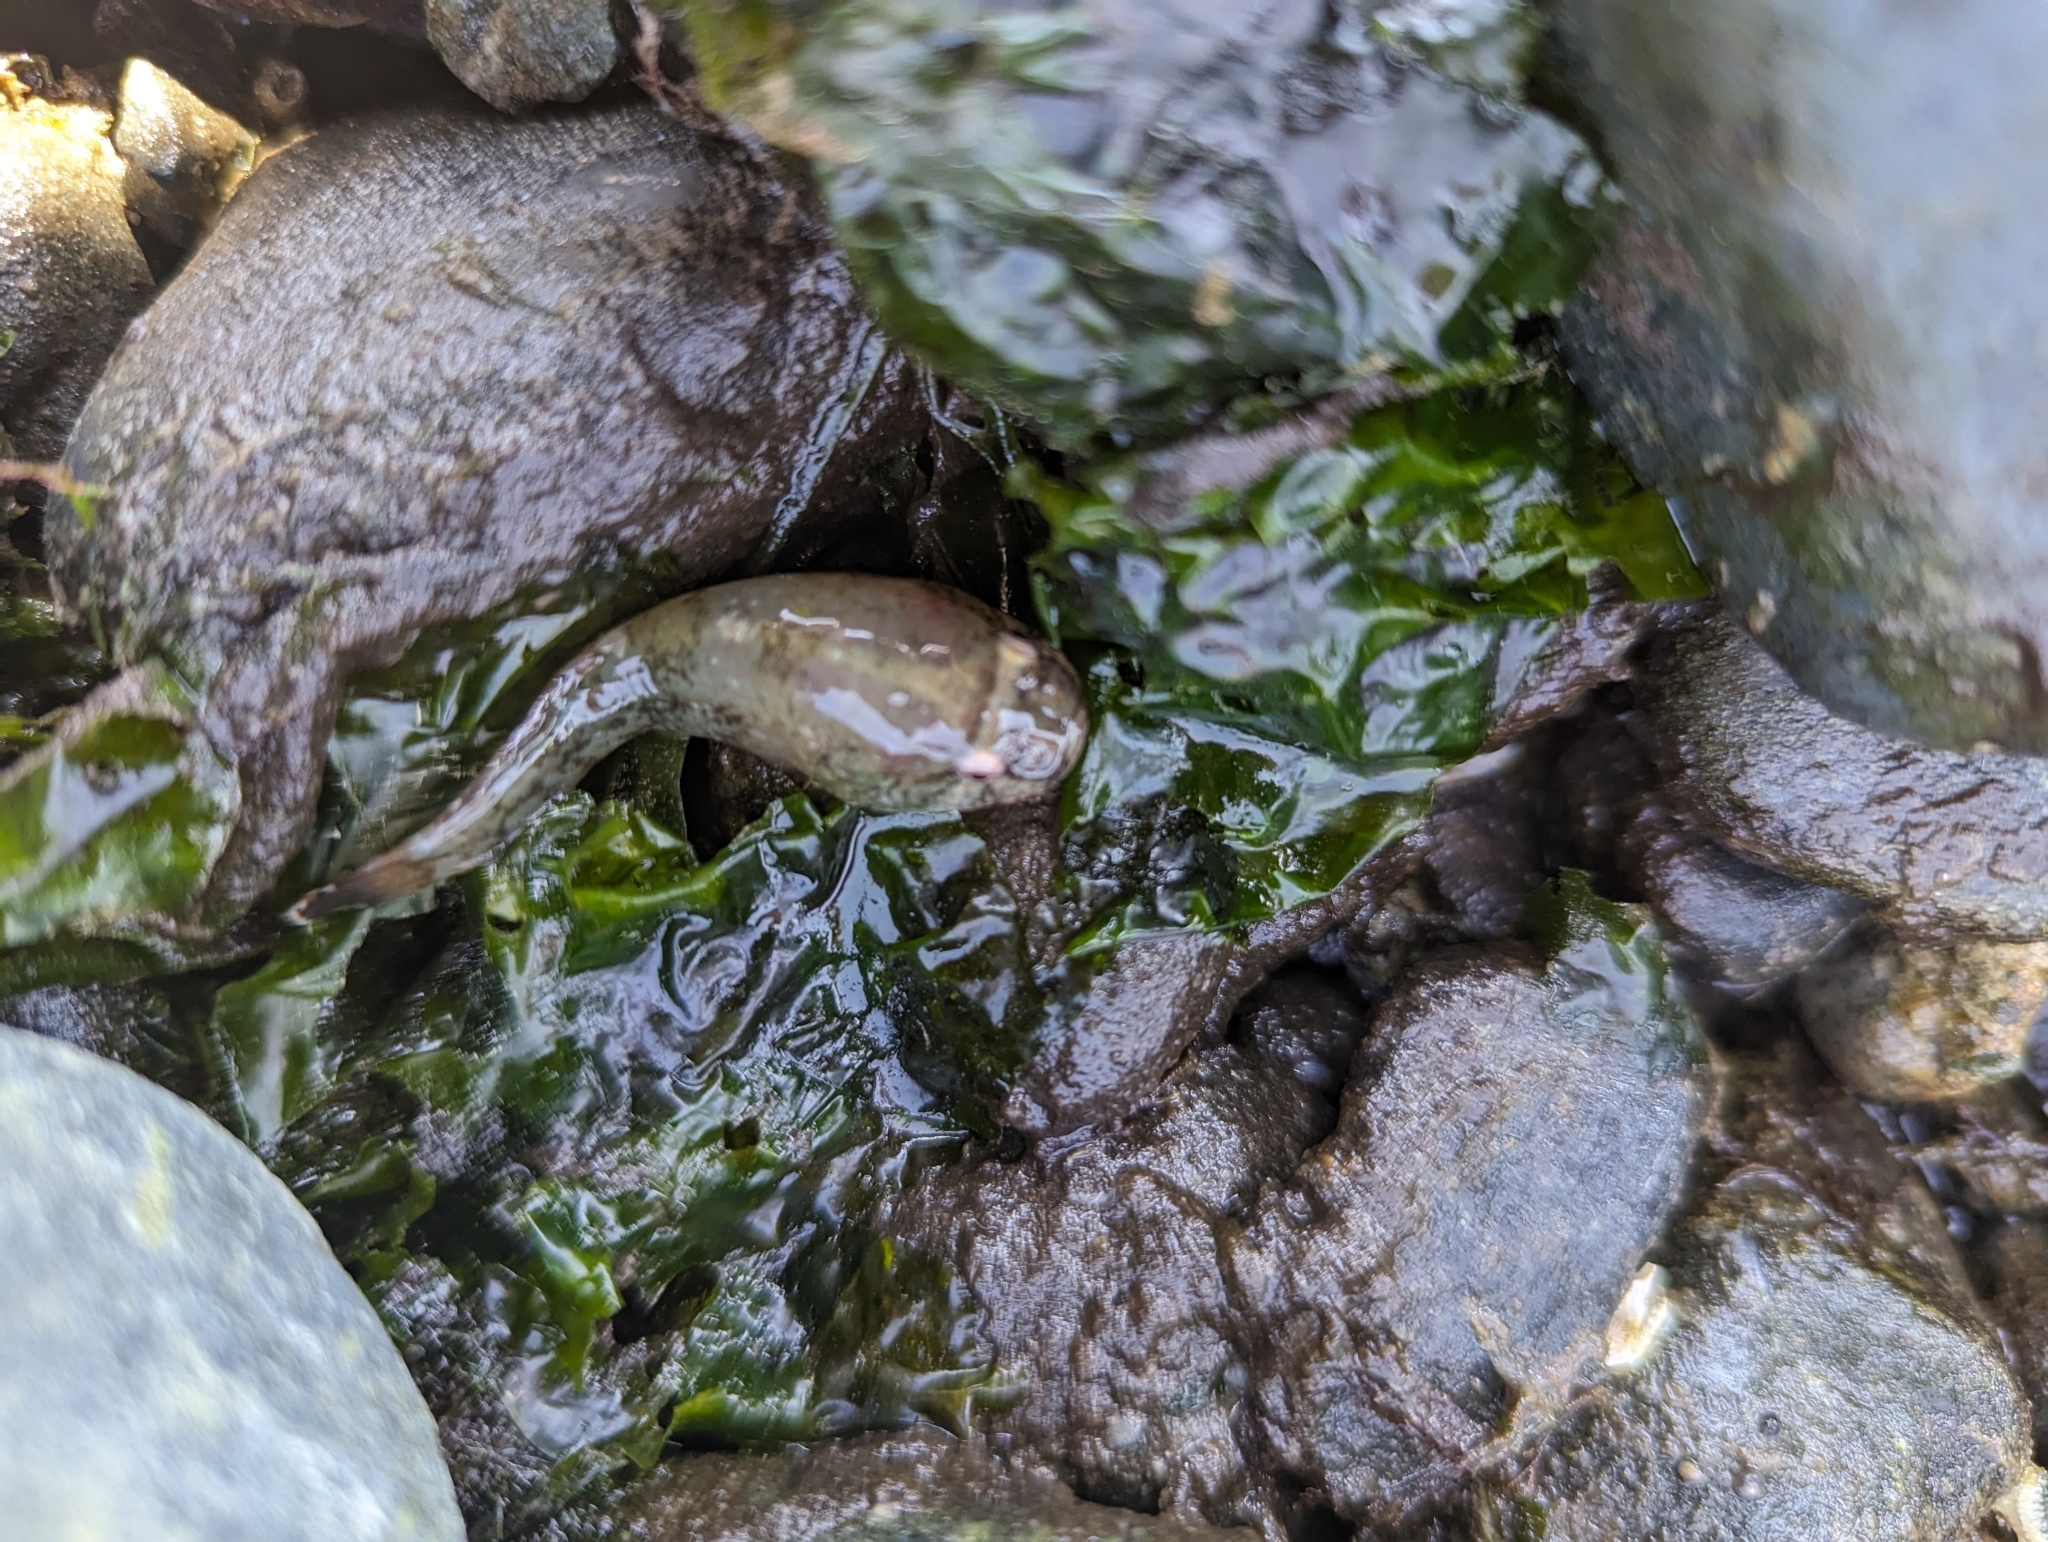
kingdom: Animalia
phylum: Chordata
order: Gobiesociformes
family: Gobiesocidae
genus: Gobiesox
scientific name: Gobiesox maeandricus
